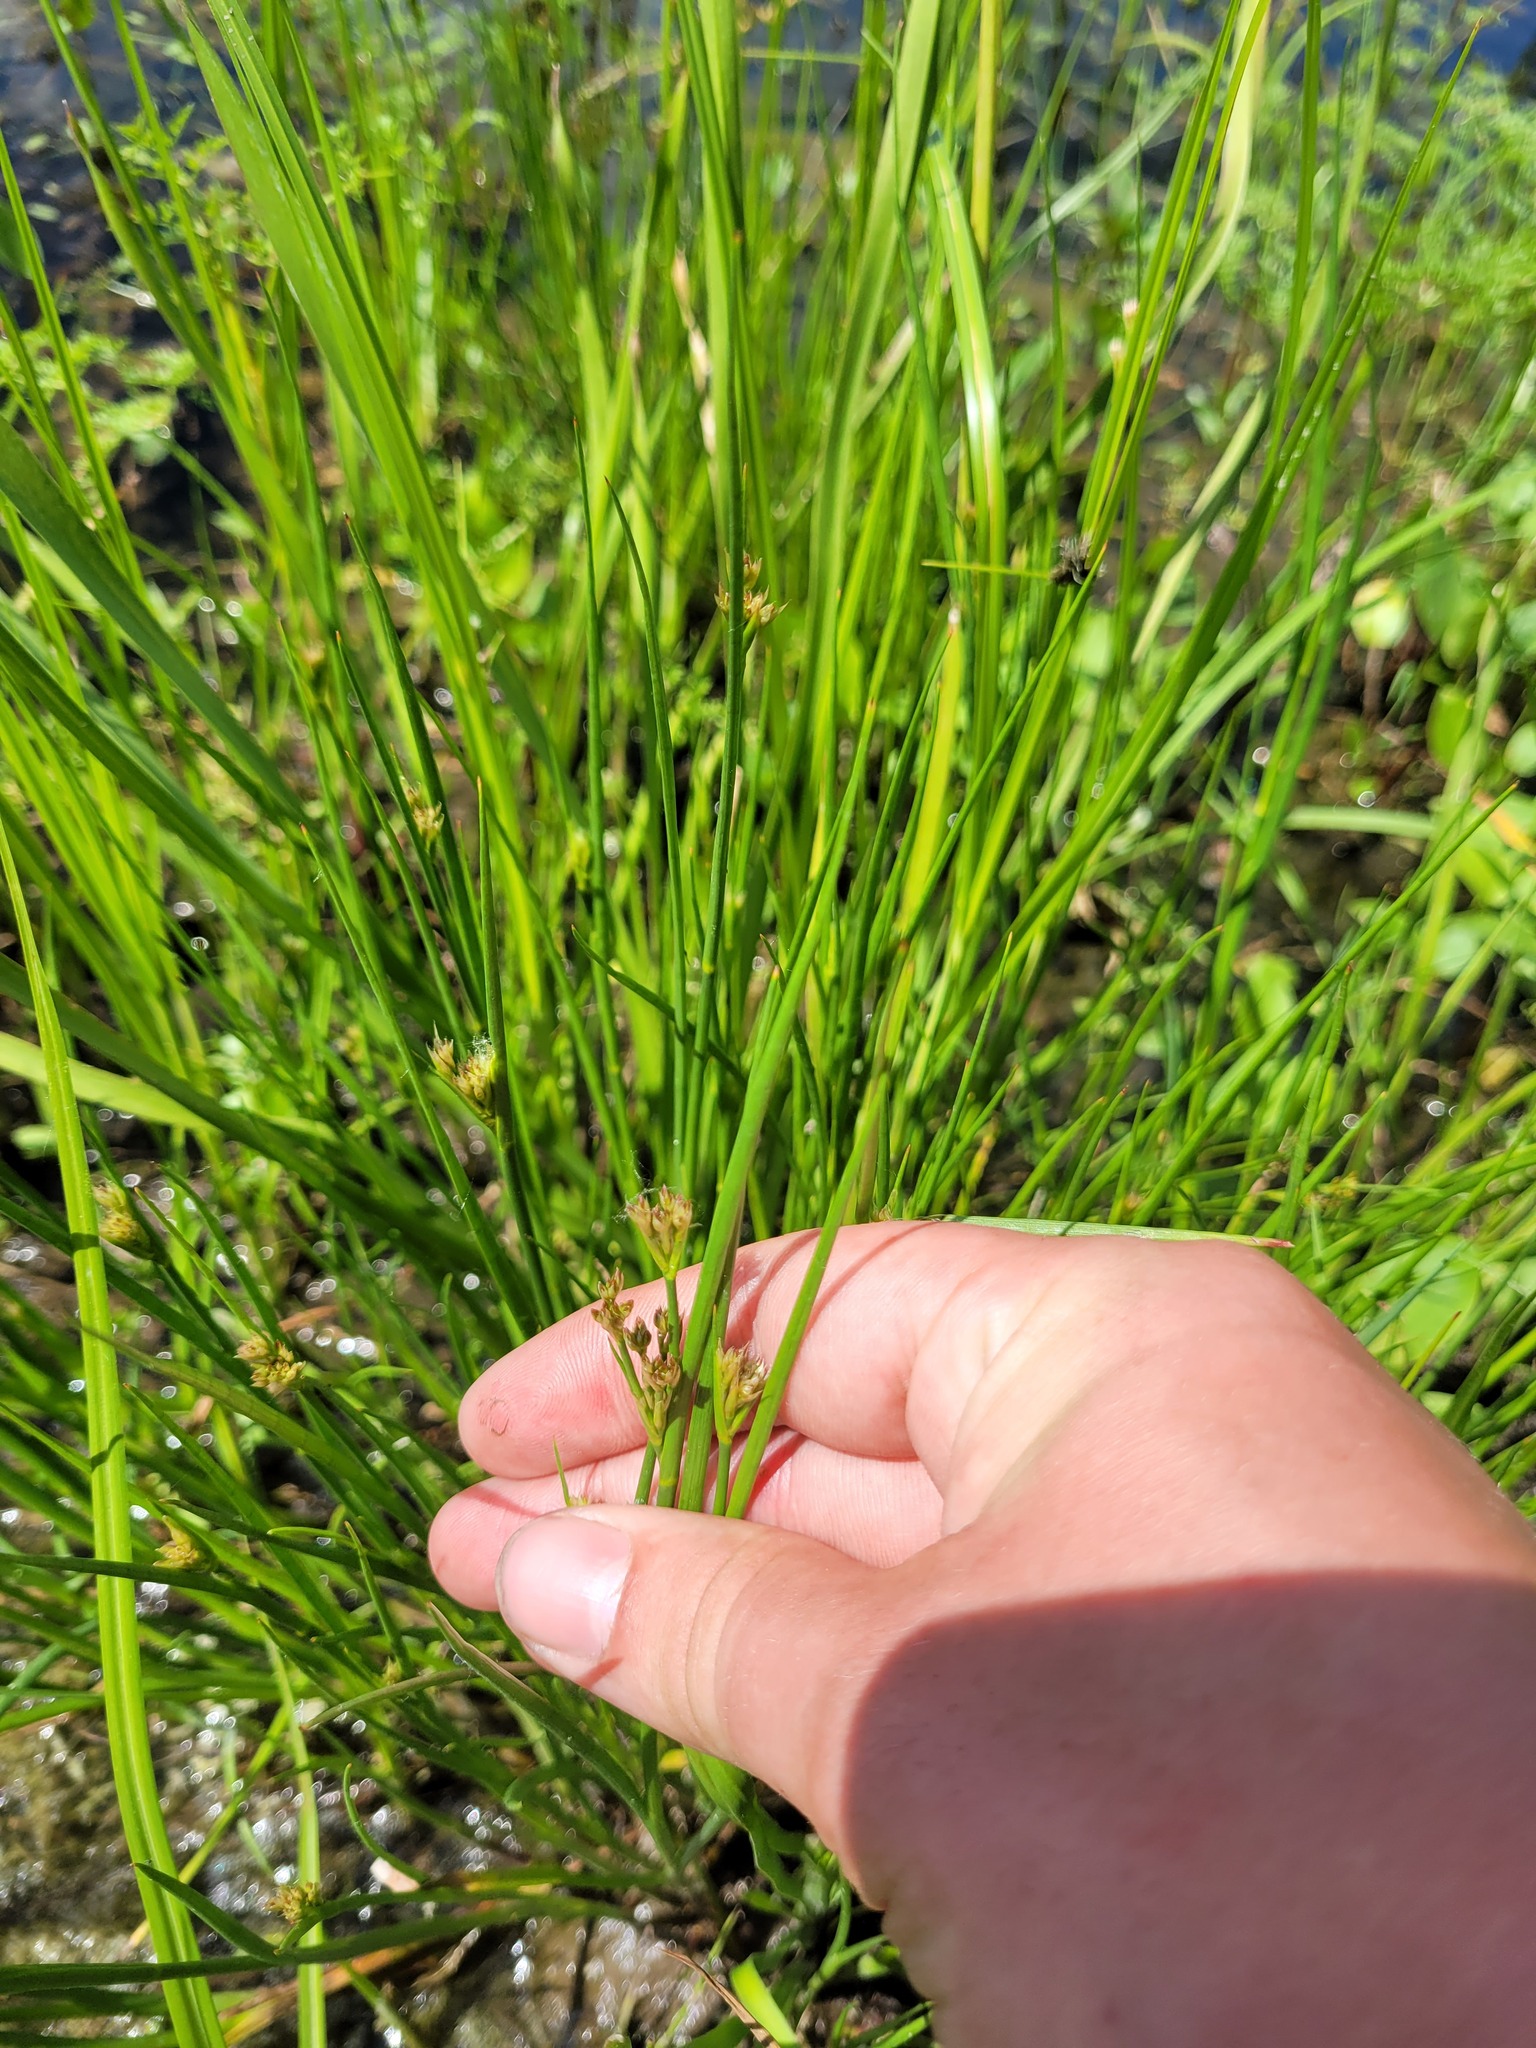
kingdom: Plantae
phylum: Tracheophyta
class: Liliopsida
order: Poales
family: Juncaceae
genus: Juncus
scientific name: Juncus articulatus
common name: Jointed rush
